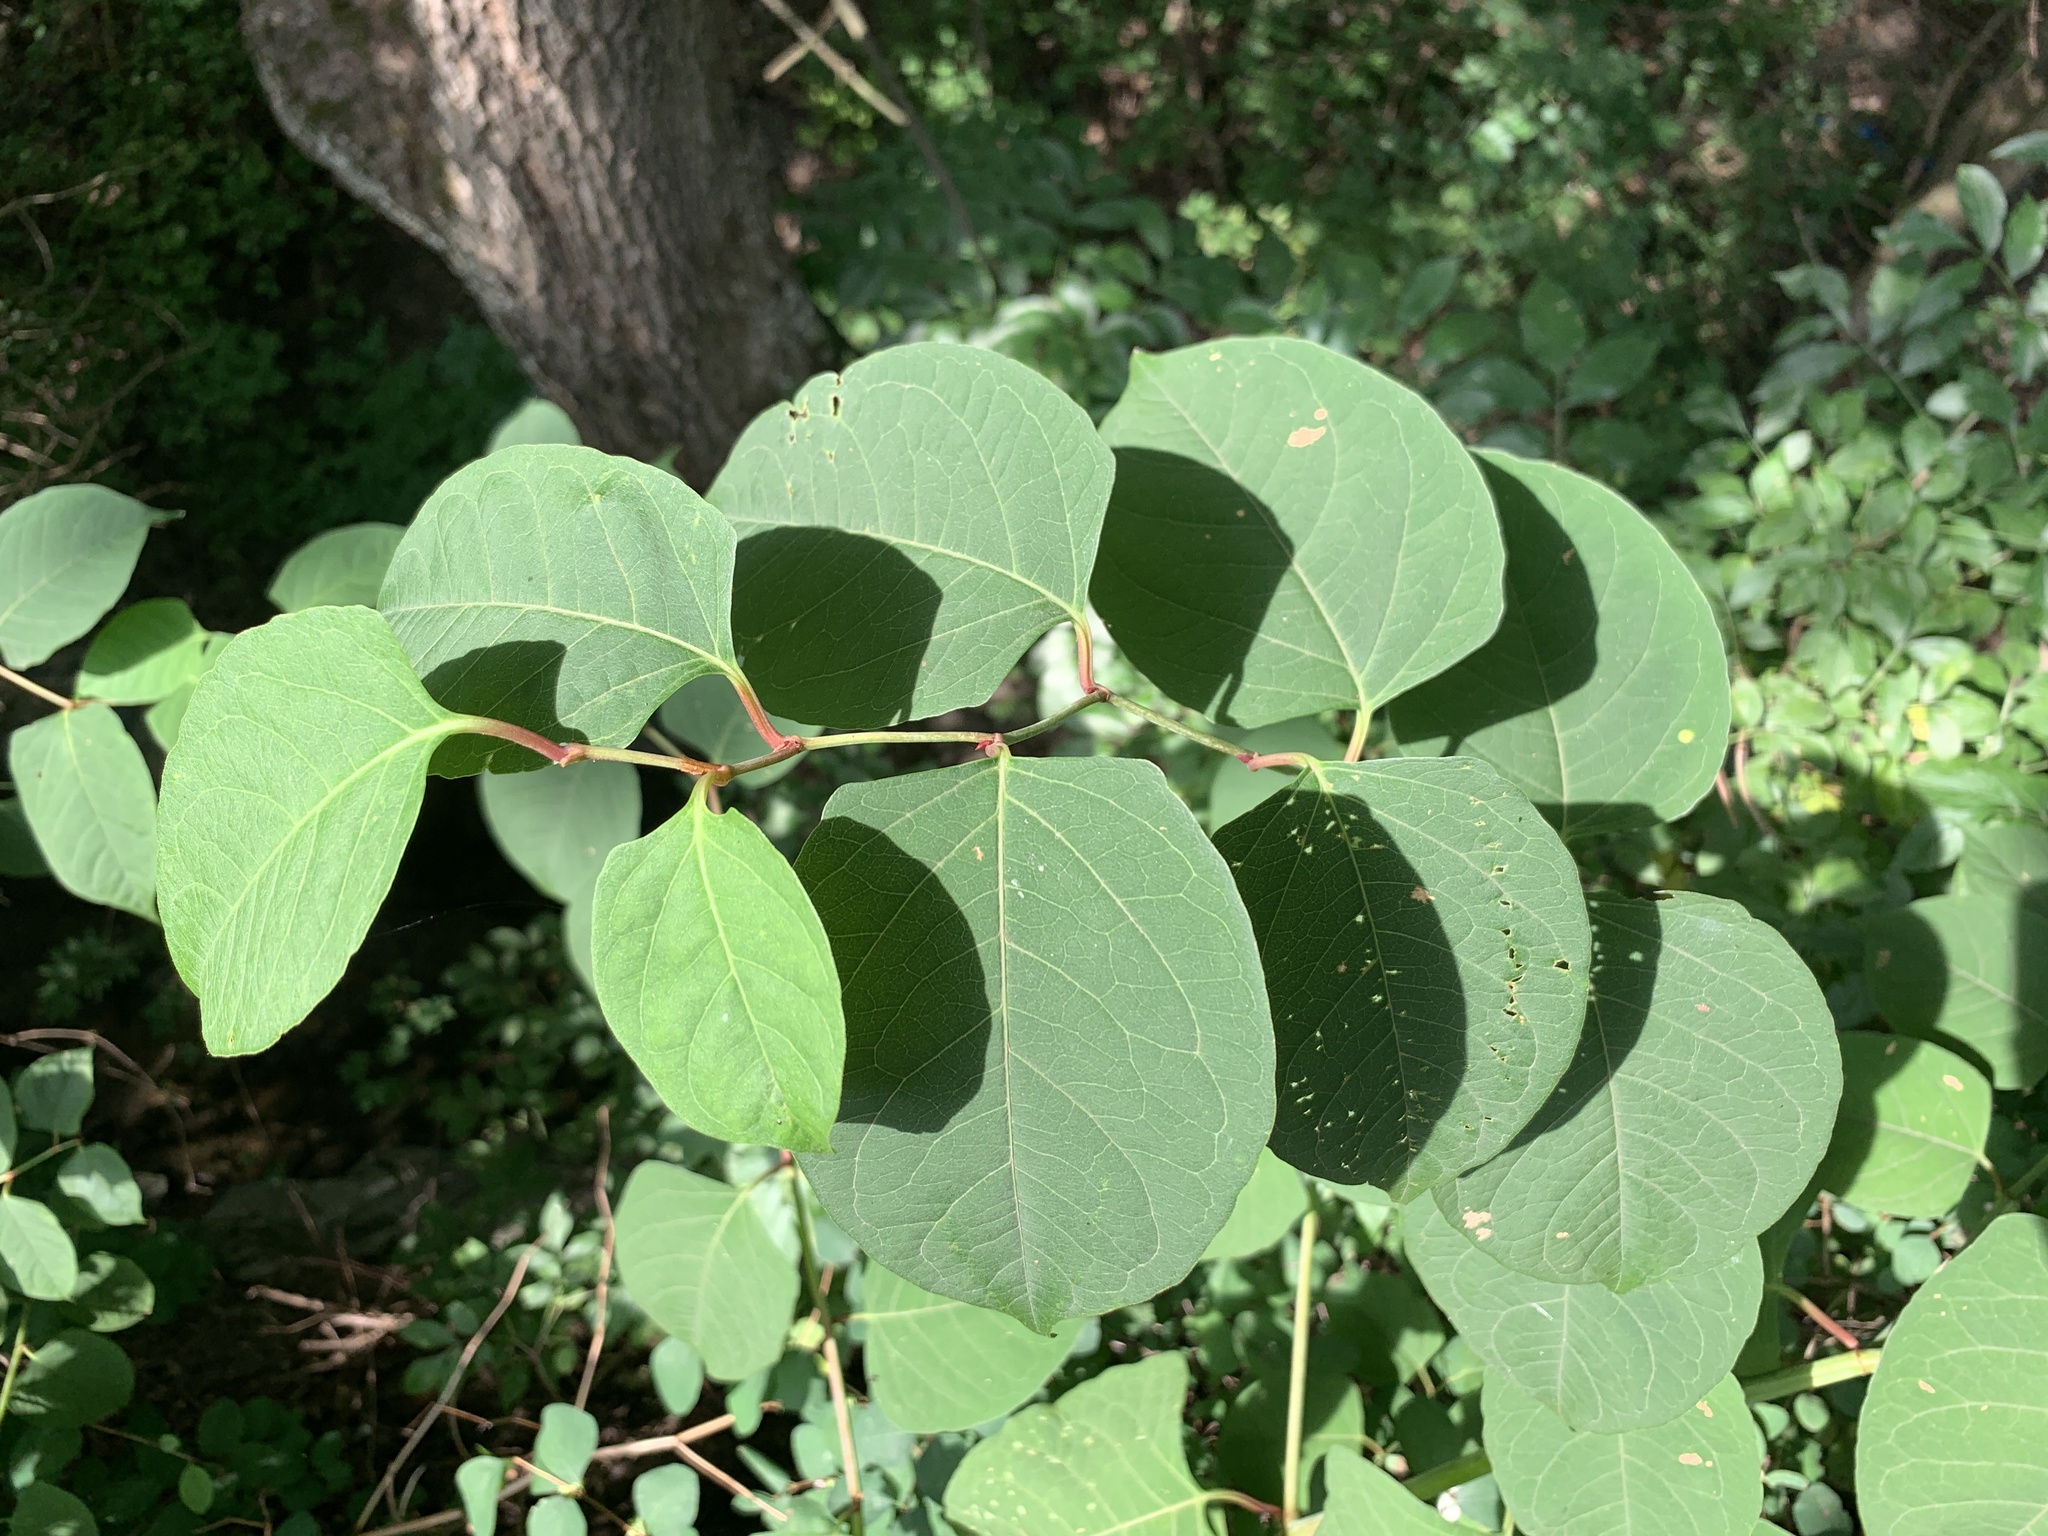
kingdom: Plantae
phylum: Tracheophyta
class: Magnoliopsida
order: Caryophyllales
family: Polygonaceae
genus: Reynoutria
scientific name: Reynoutria japonica
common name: Japanese knotweed
